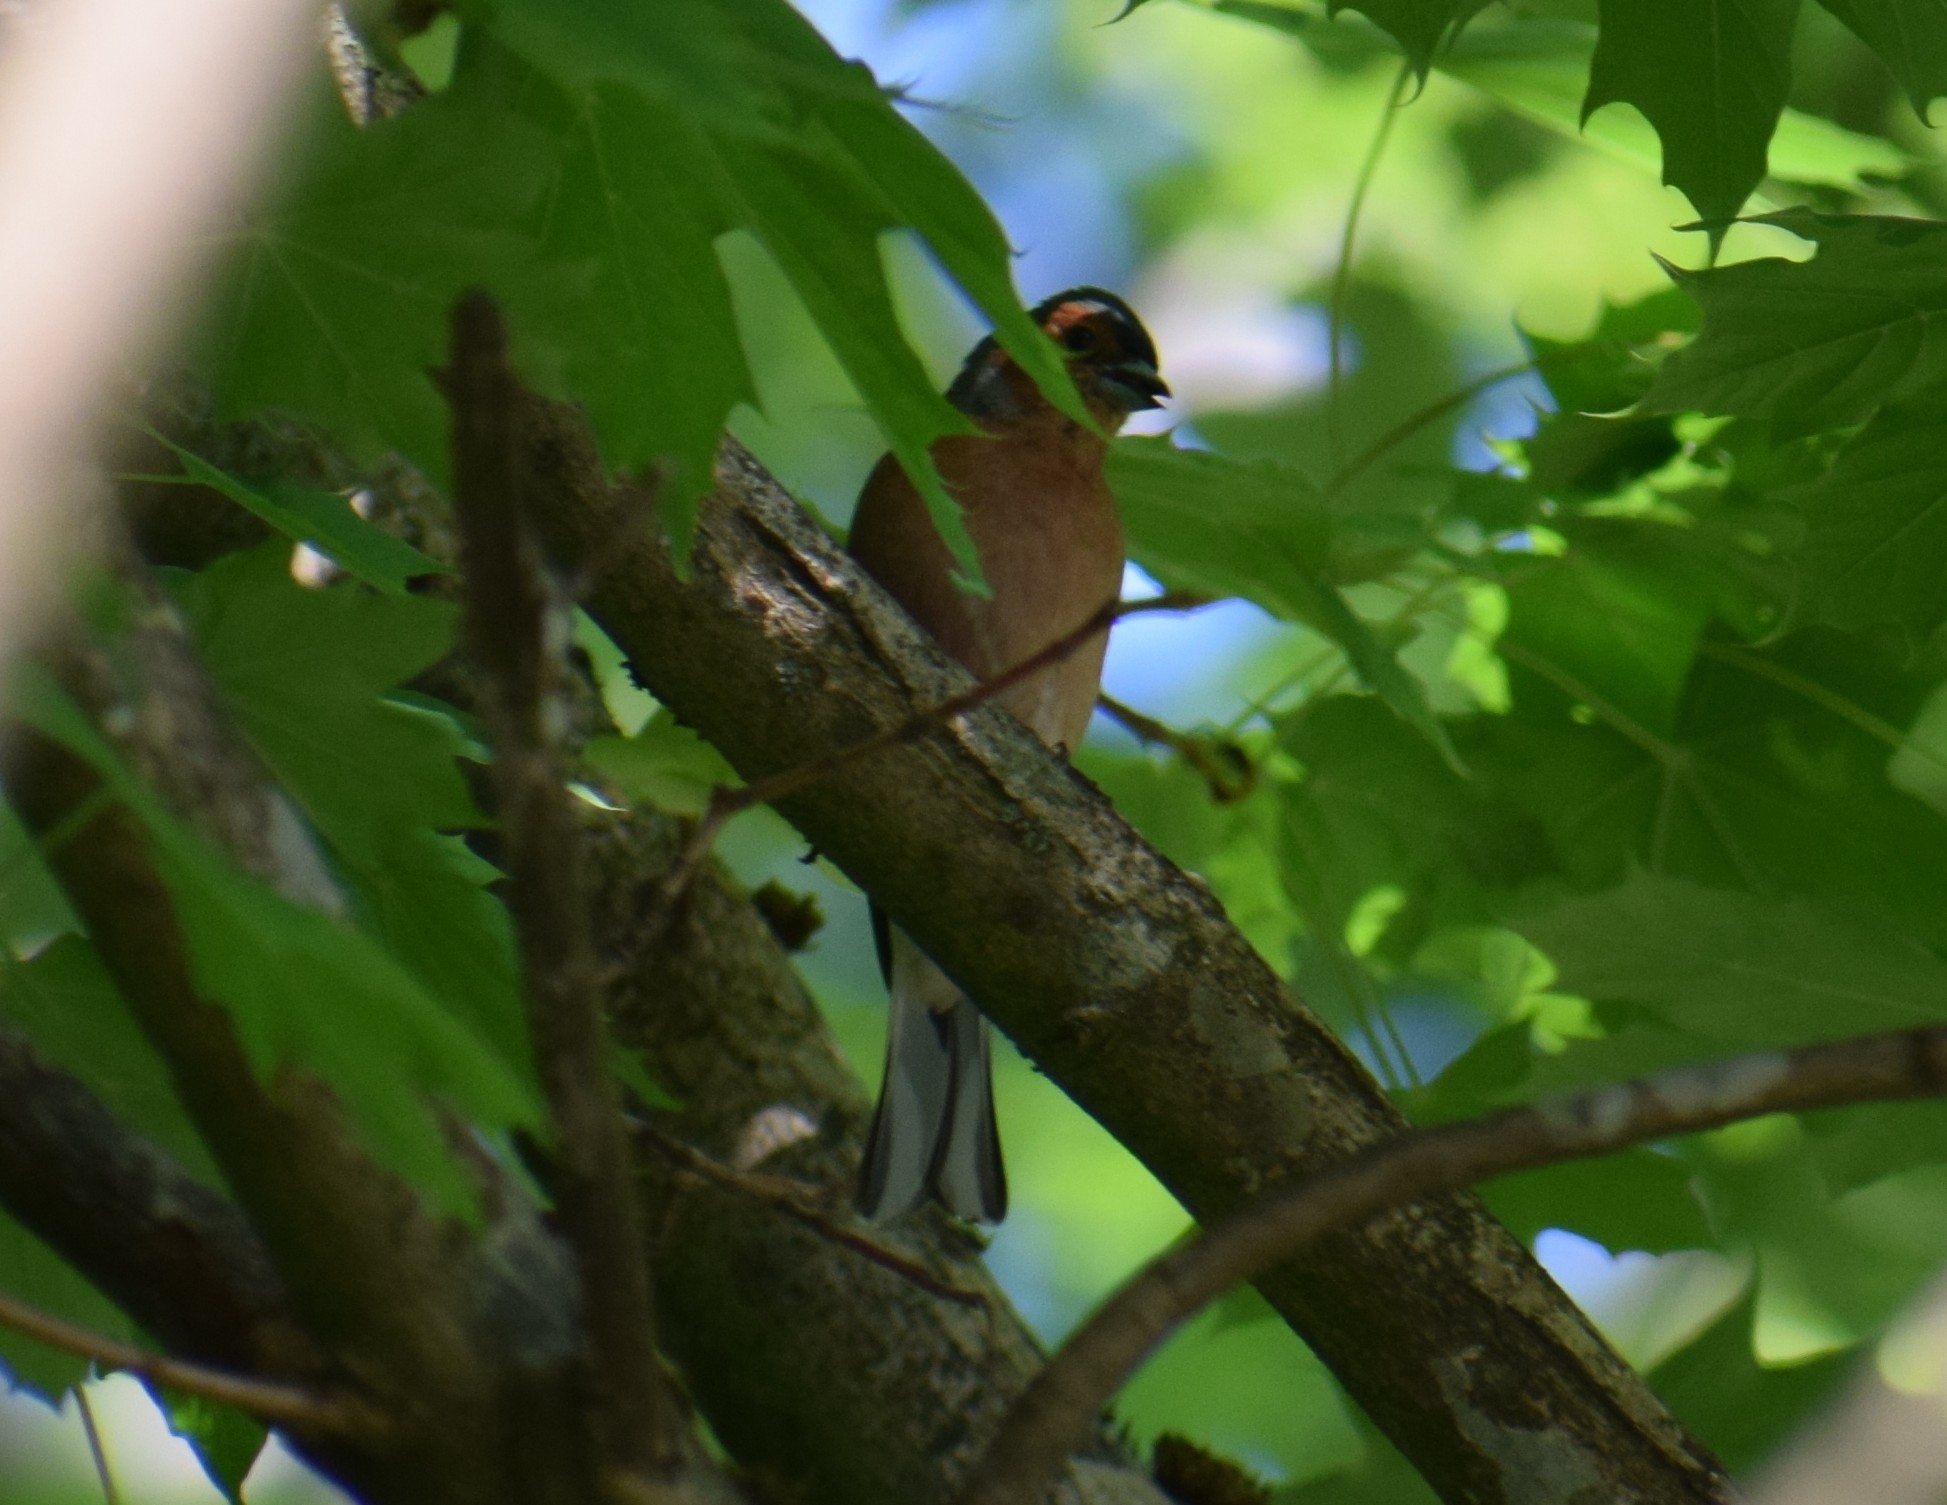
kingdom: Animalia
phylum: Chordata
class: Aves
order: Passeriformes
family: Fringillidae
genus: Fringilla
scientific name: Fringilla coelebs
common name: Common chaffinch
